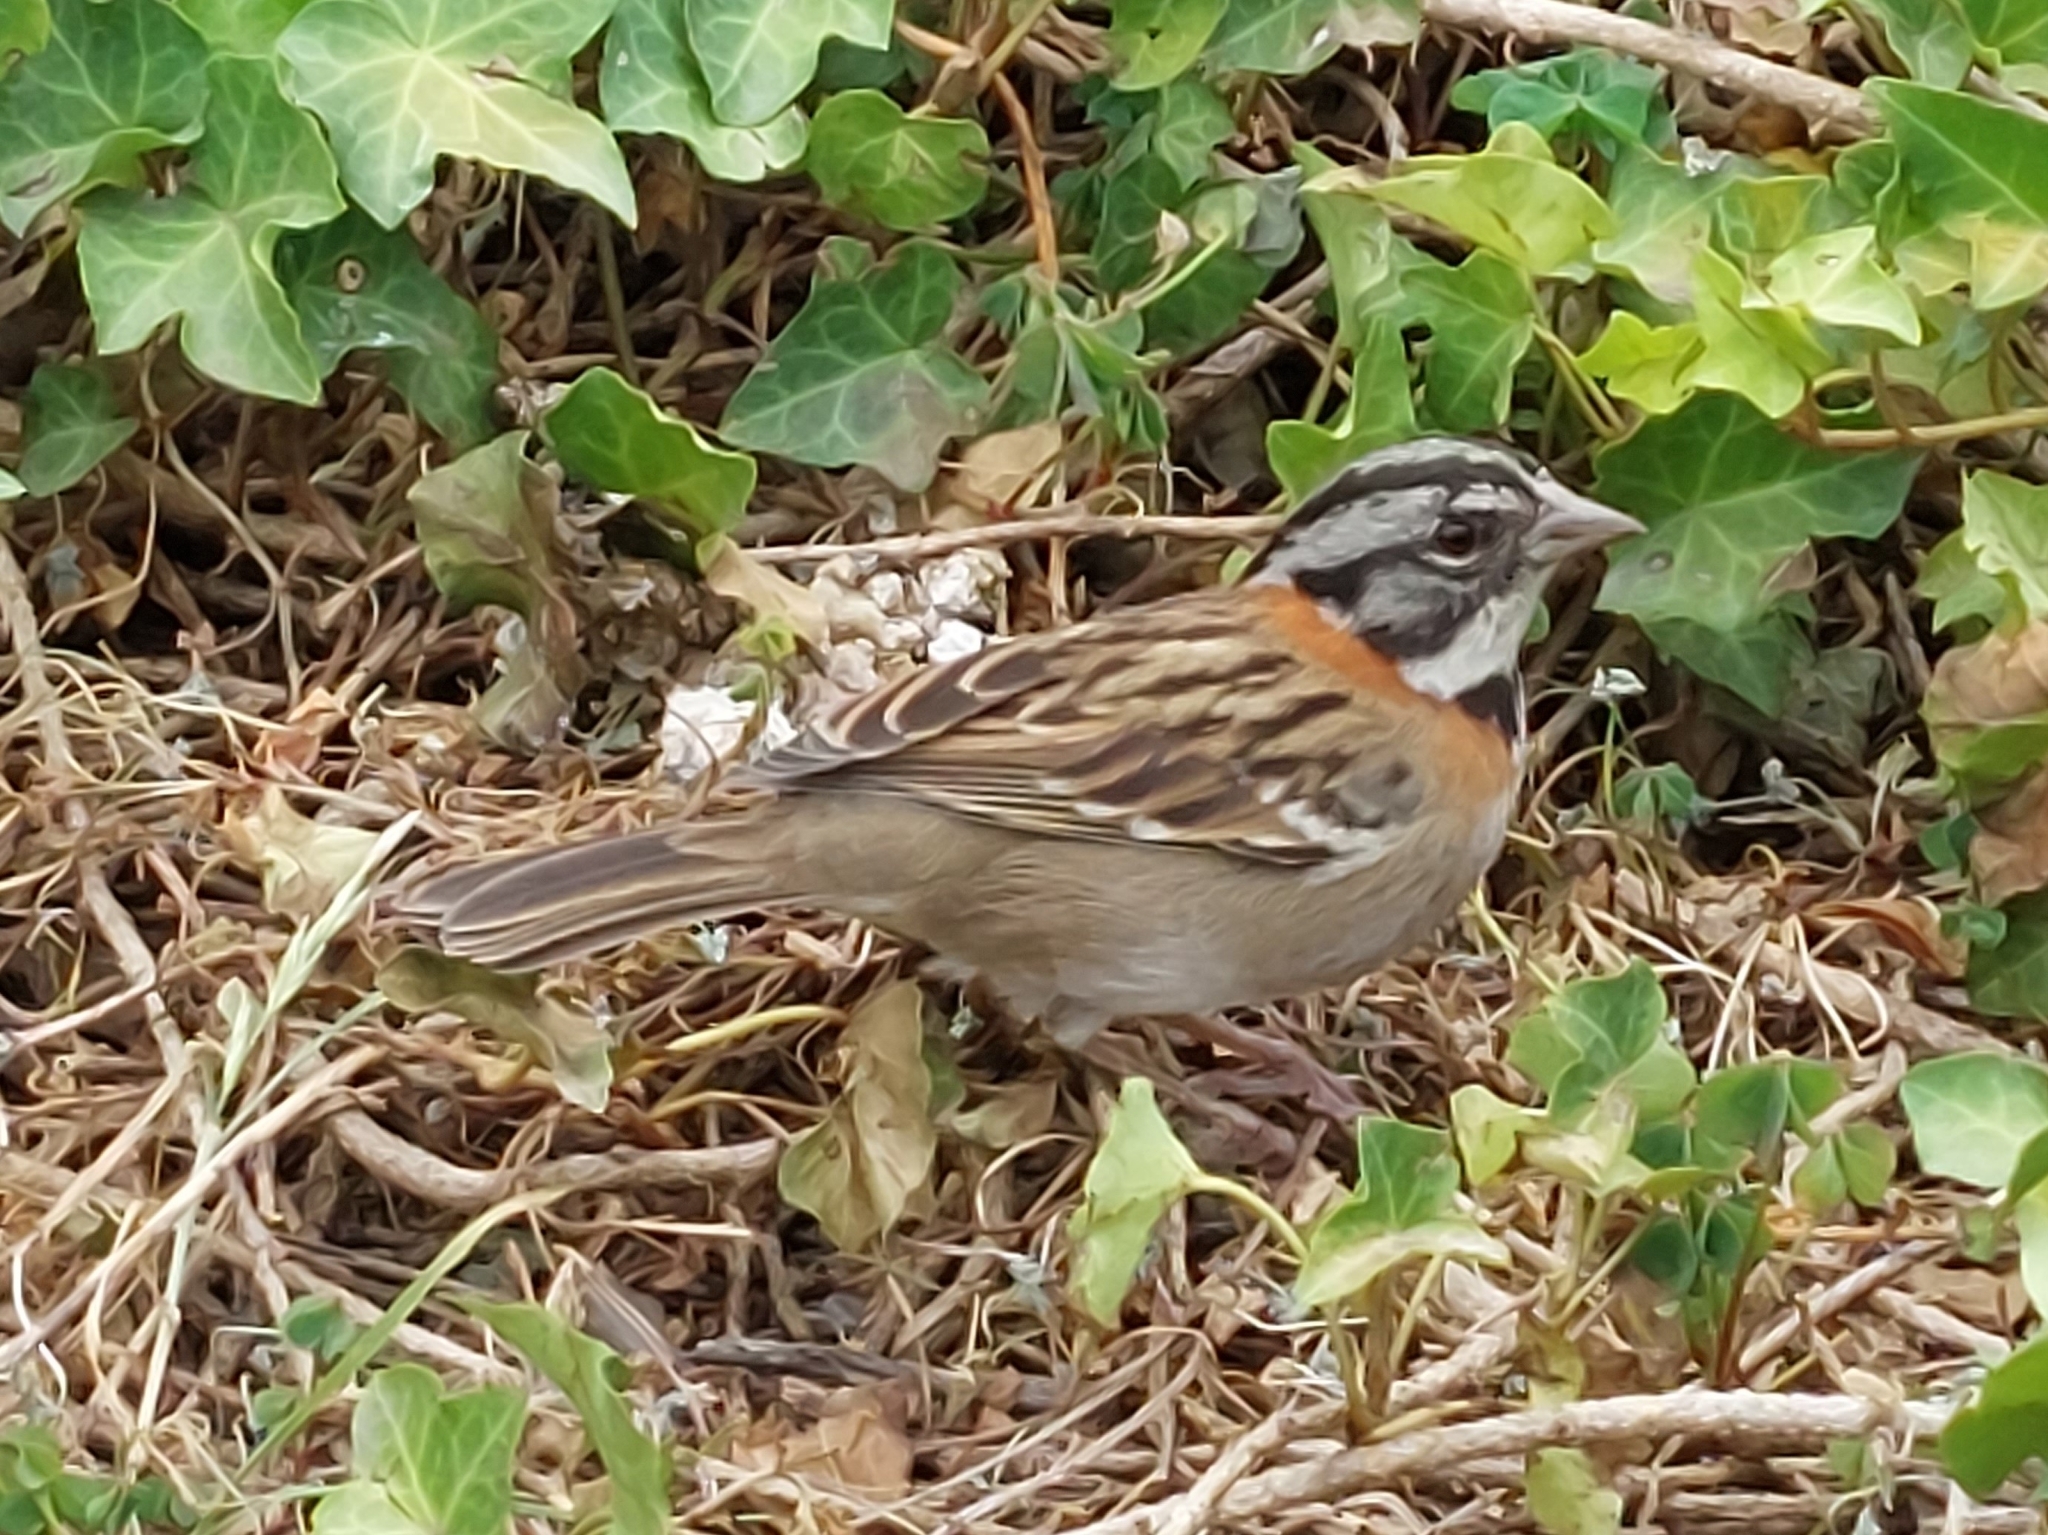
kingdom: Animalia
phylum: Chordata
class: Aves
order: Passeriformes
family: Passerellidae
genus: Zonotrichia
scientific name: Zonotrichia capensis
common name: Rufous-collared sparrow
